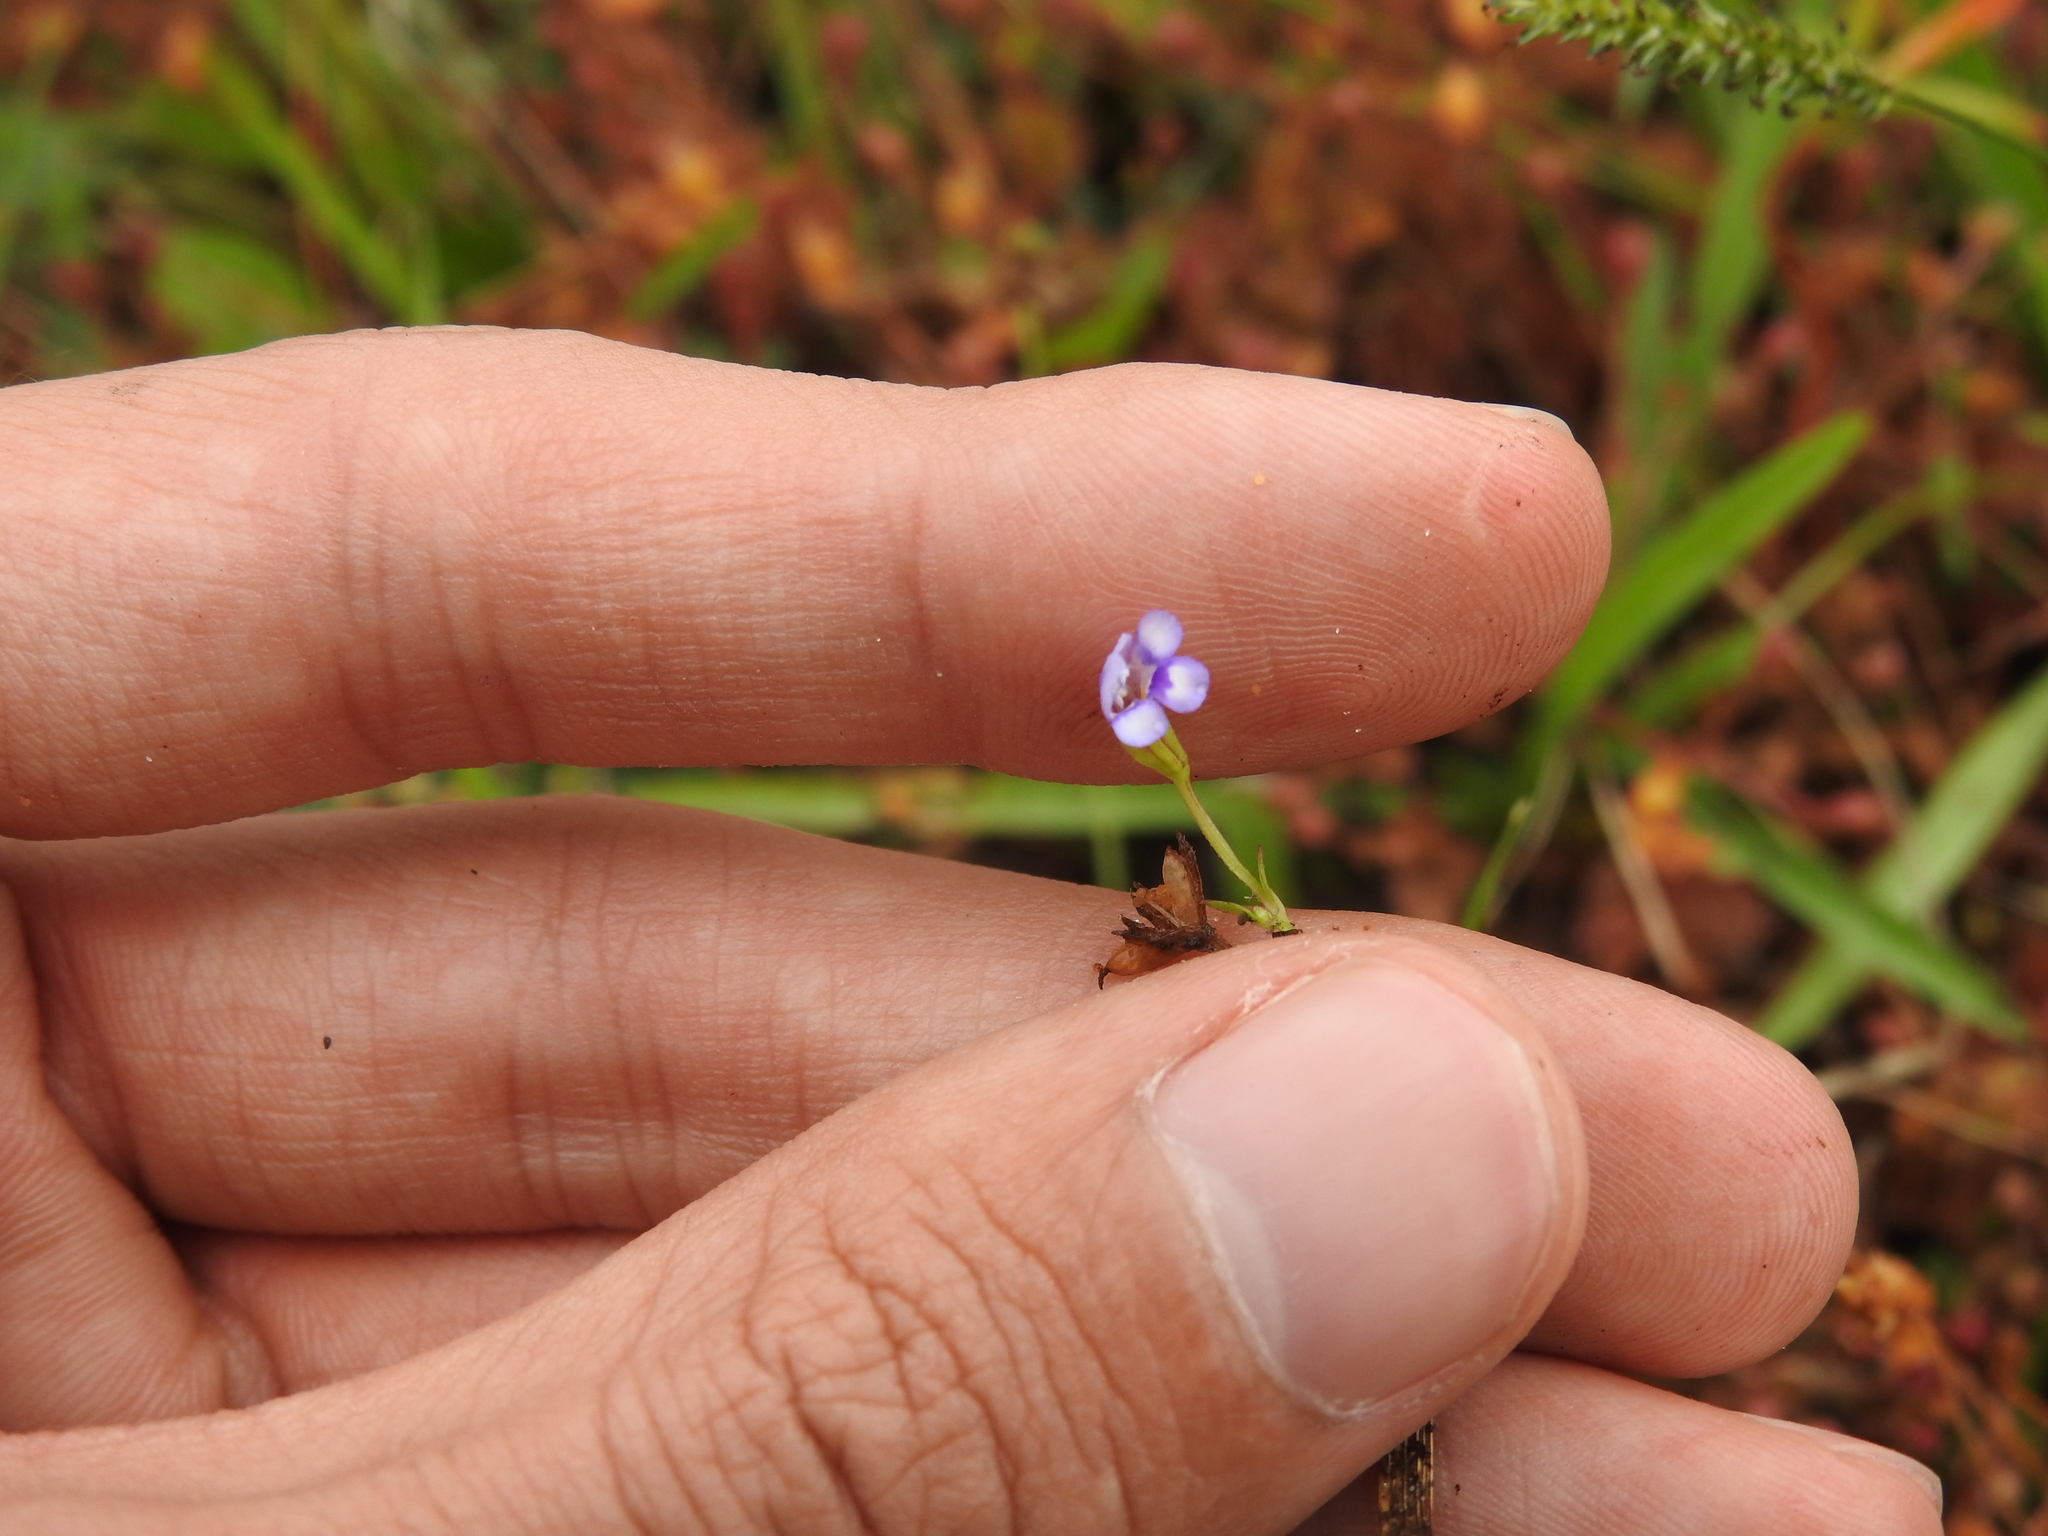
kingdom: Plantae
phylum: Tracheophyta
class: Magnoliopsida
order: Lamiales
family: Linderniaceae
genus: Torenia
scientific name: Torenia crustacea
